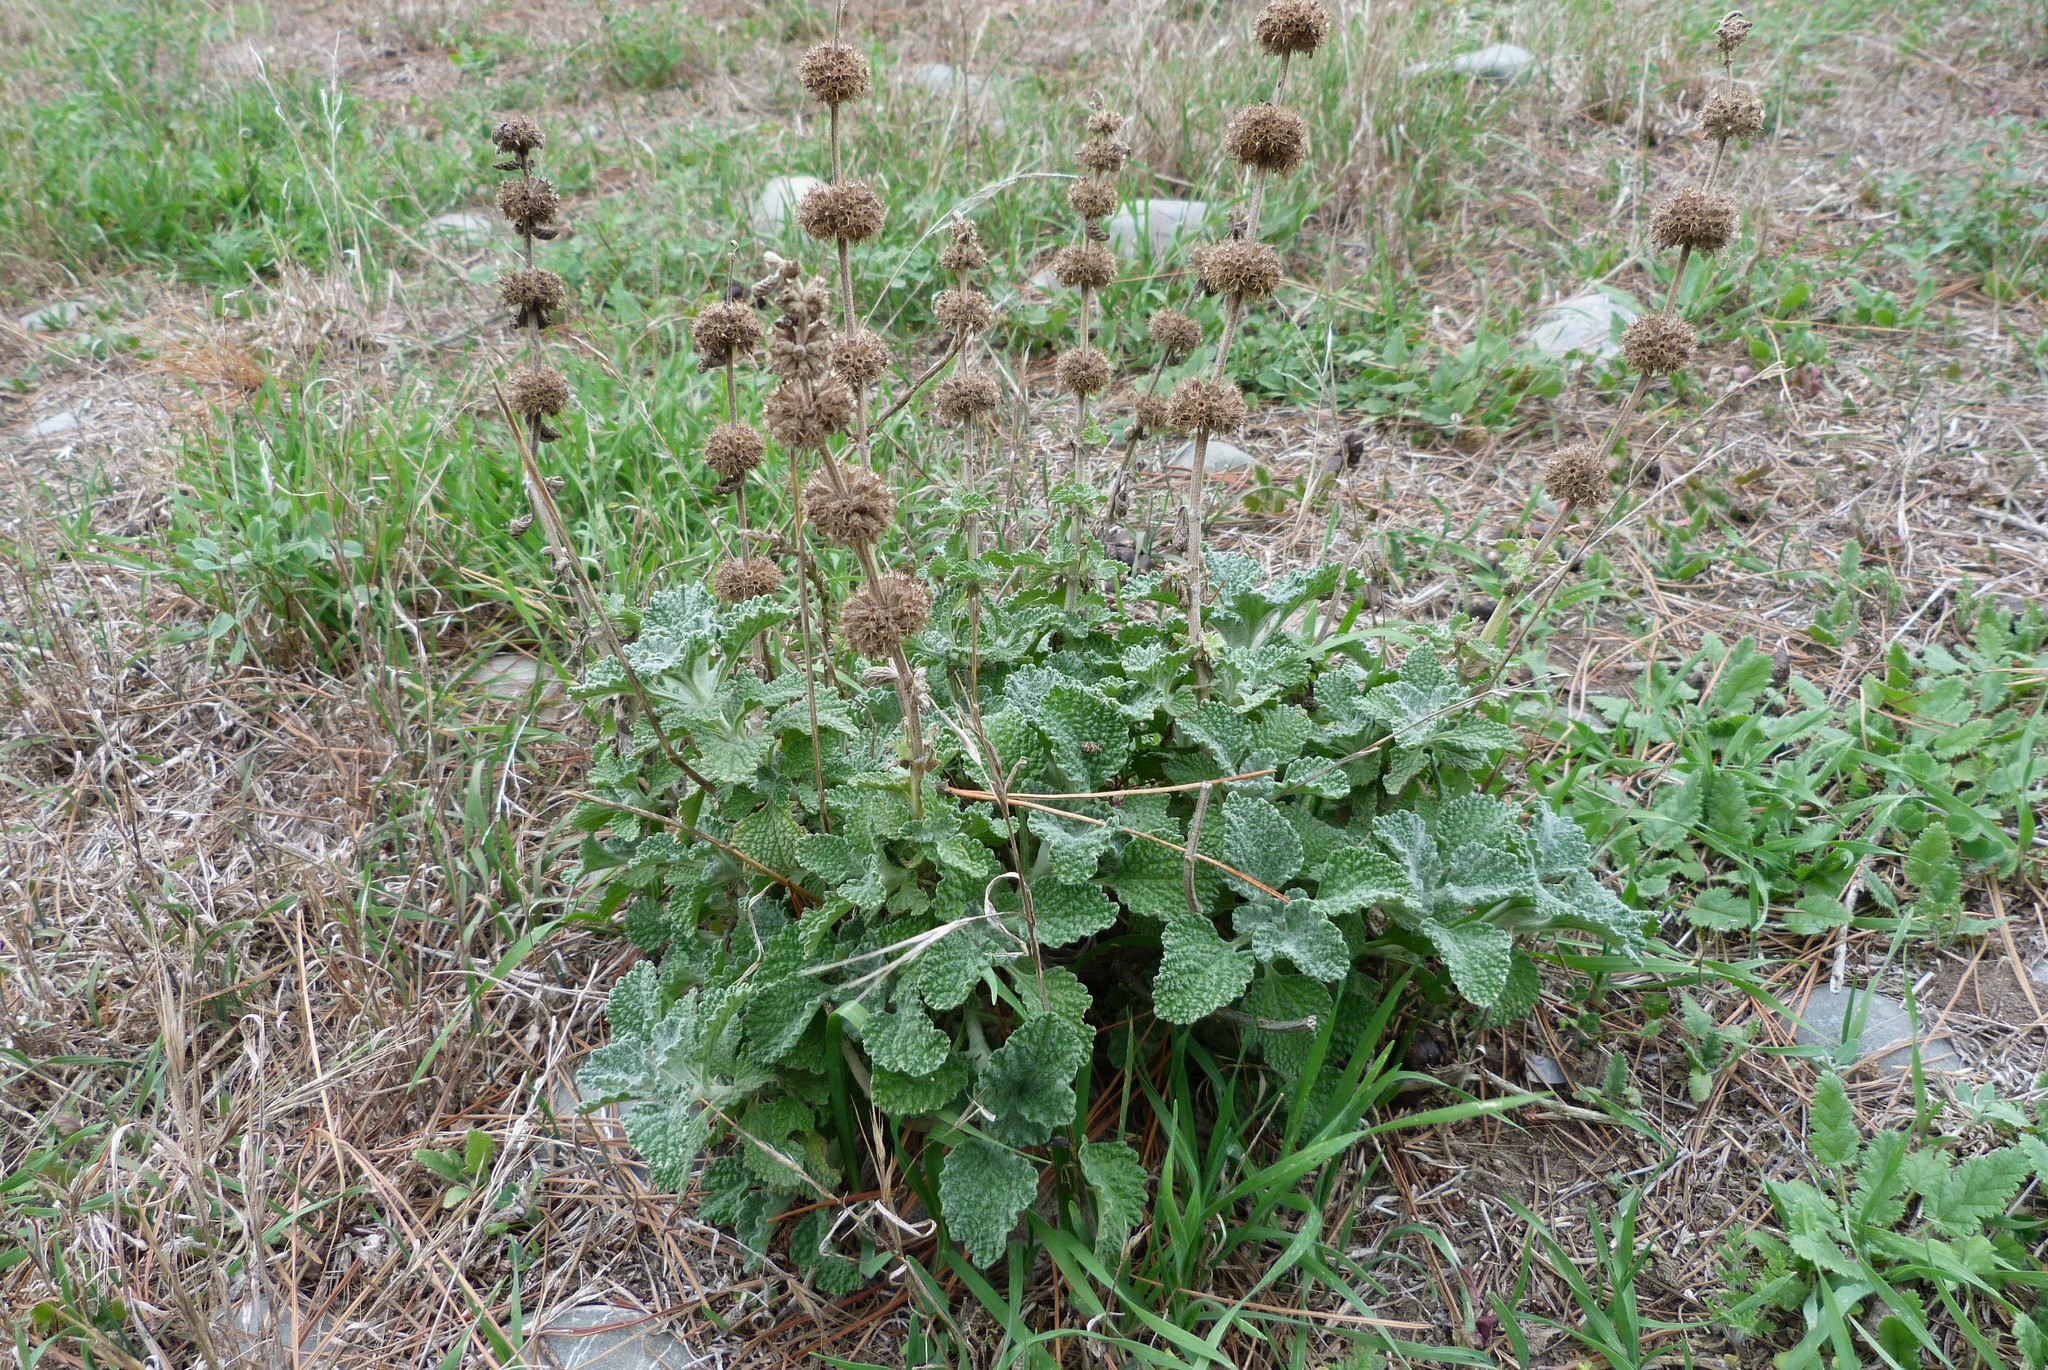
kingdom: Plantae
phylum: Tracheophyta
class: Magnoliopsida
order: Lamiales
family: Lamiaceae
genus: Marrubium
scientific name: Marrubium vulgare
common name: Horehound
